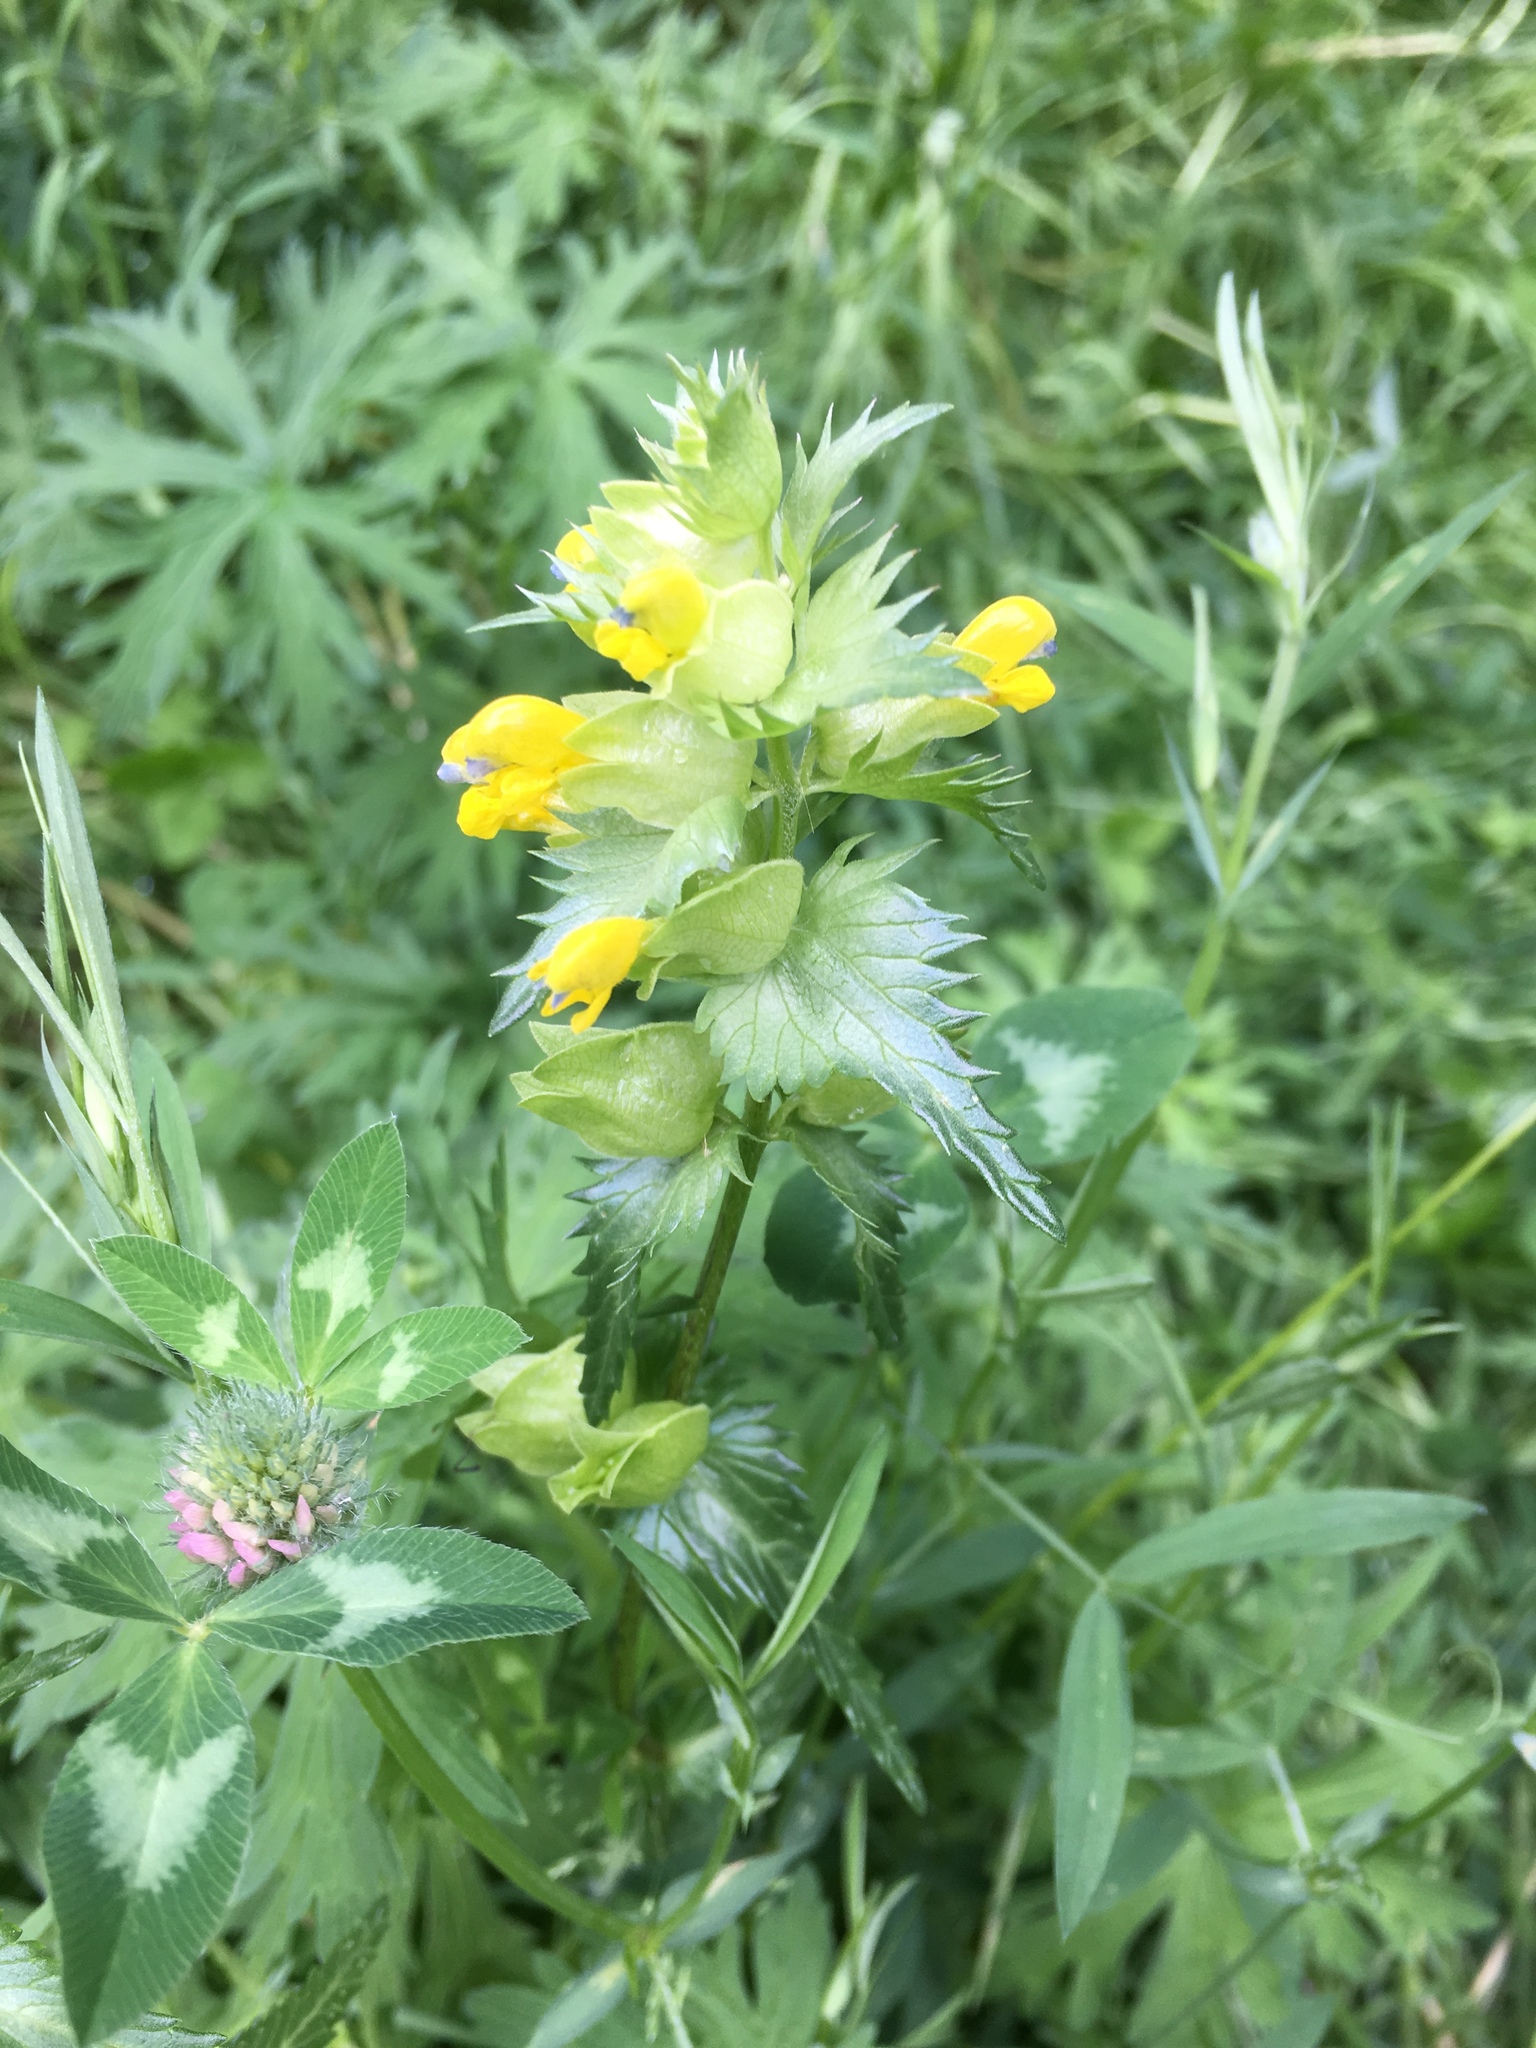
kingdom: Plantae
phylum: Tracheophyta
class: Magnoliopsida
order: Lamiales
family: Orobanchaceae
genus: Rhinanthus
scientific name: Rhinanthus minor
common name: Yellow-rattle
